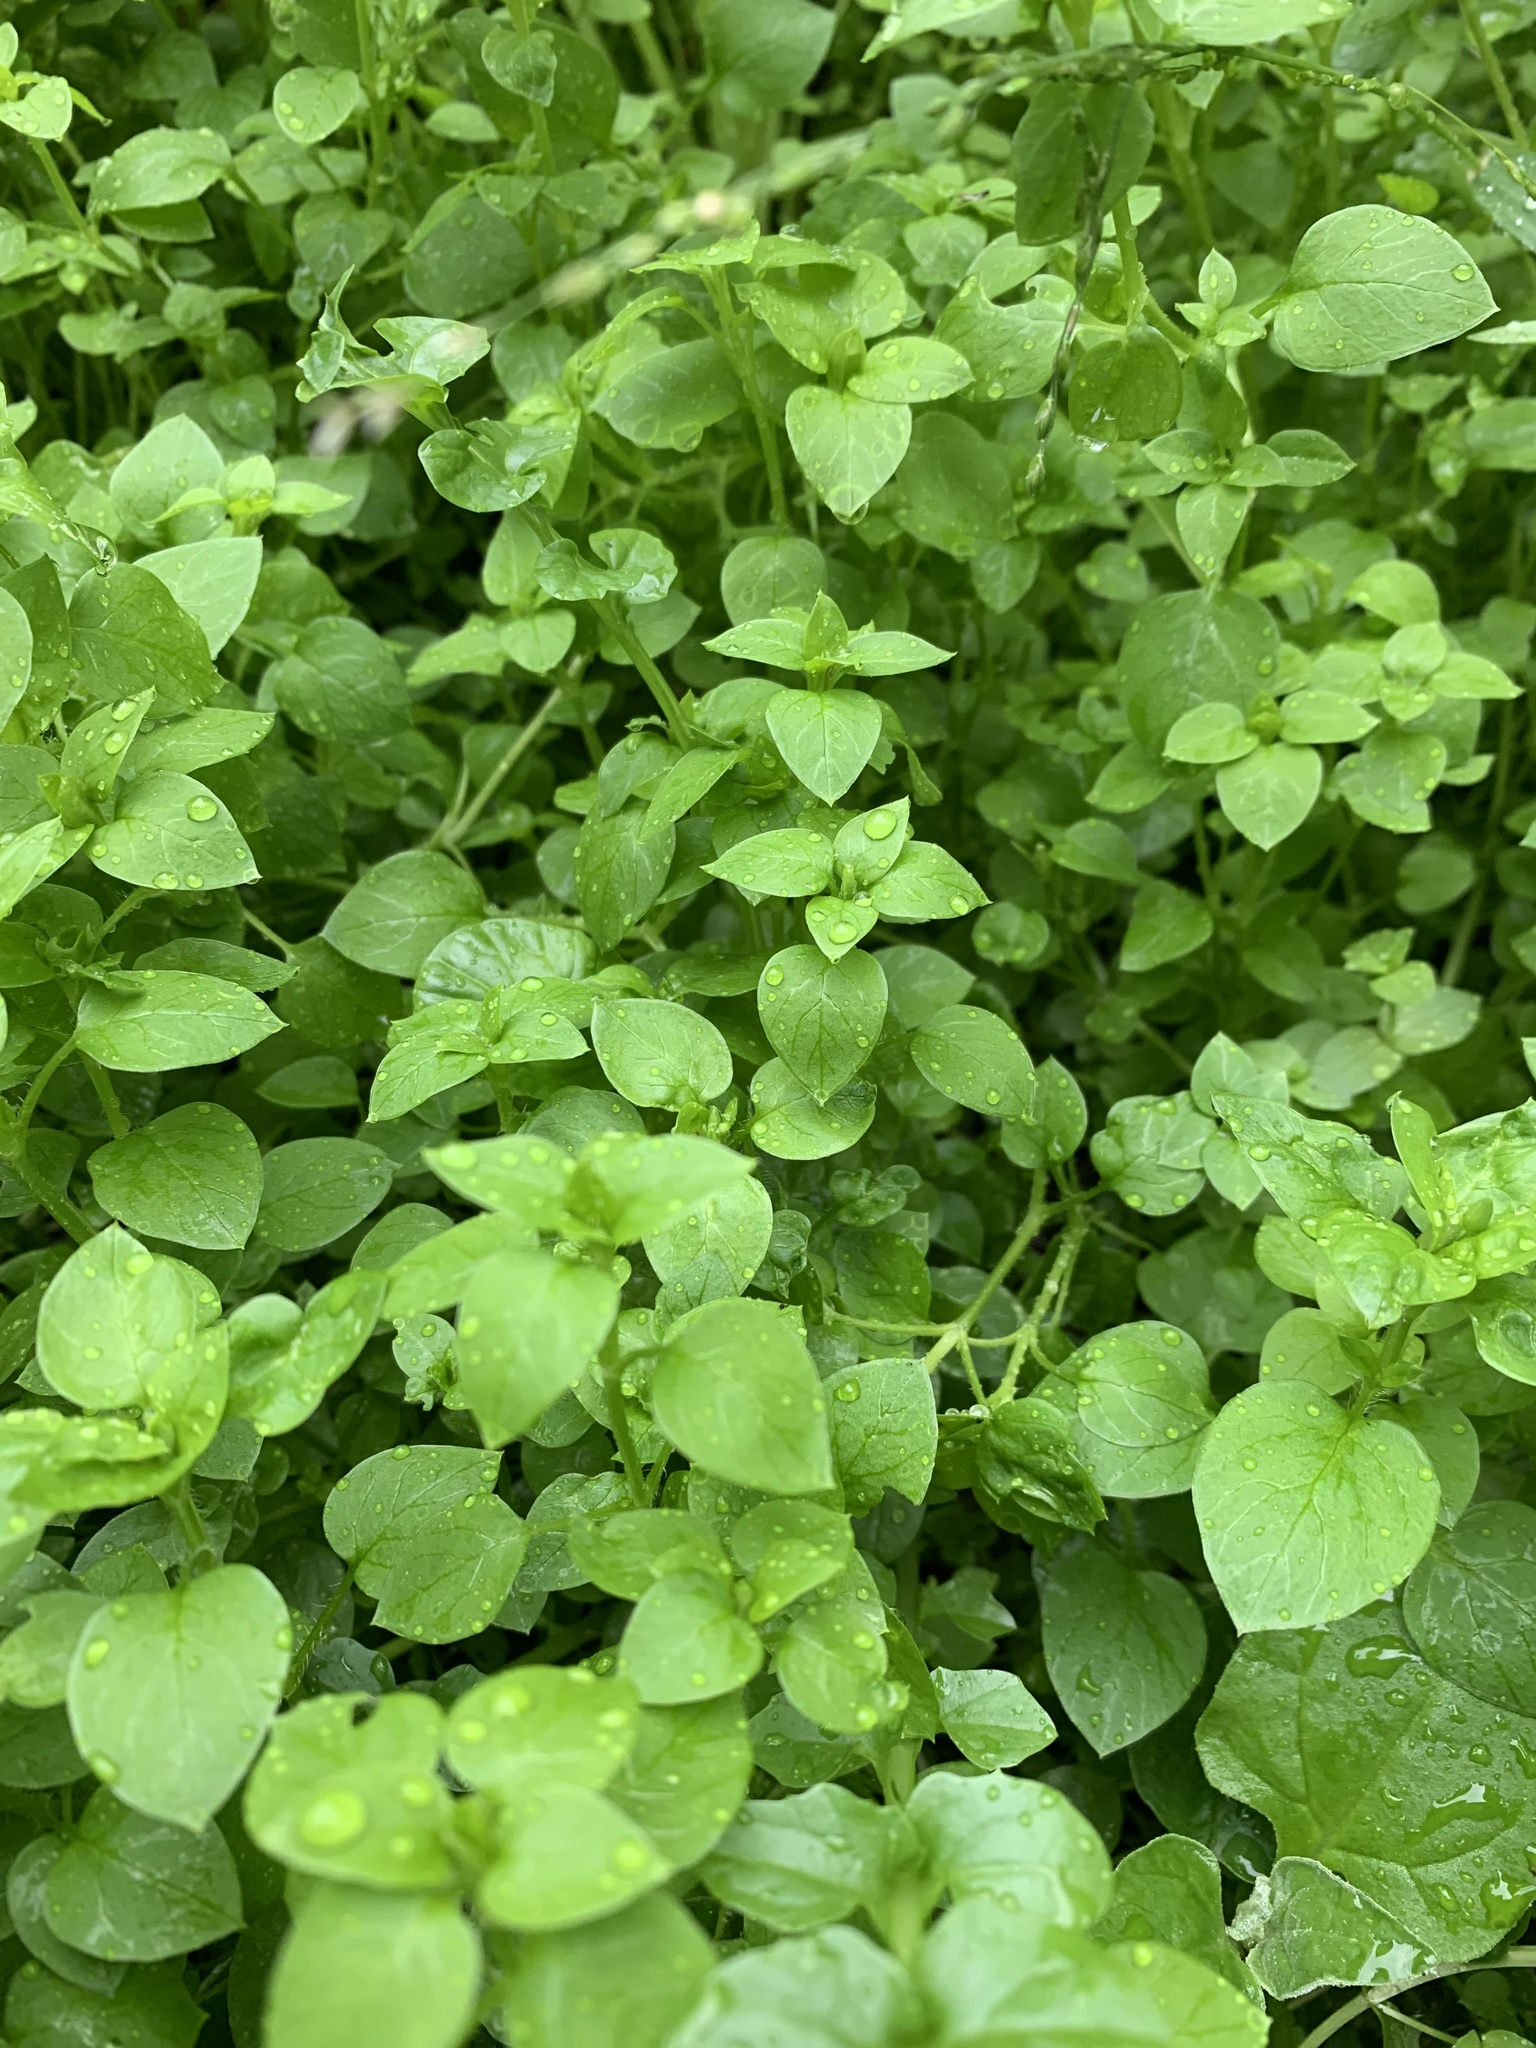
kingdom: Plantae
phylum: Tracheophyta
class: Magnoliopsida
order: Caryophyllales
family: Caryophyllaceae
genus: Stellaria
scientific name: Stellaria media
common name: Common chickweed
